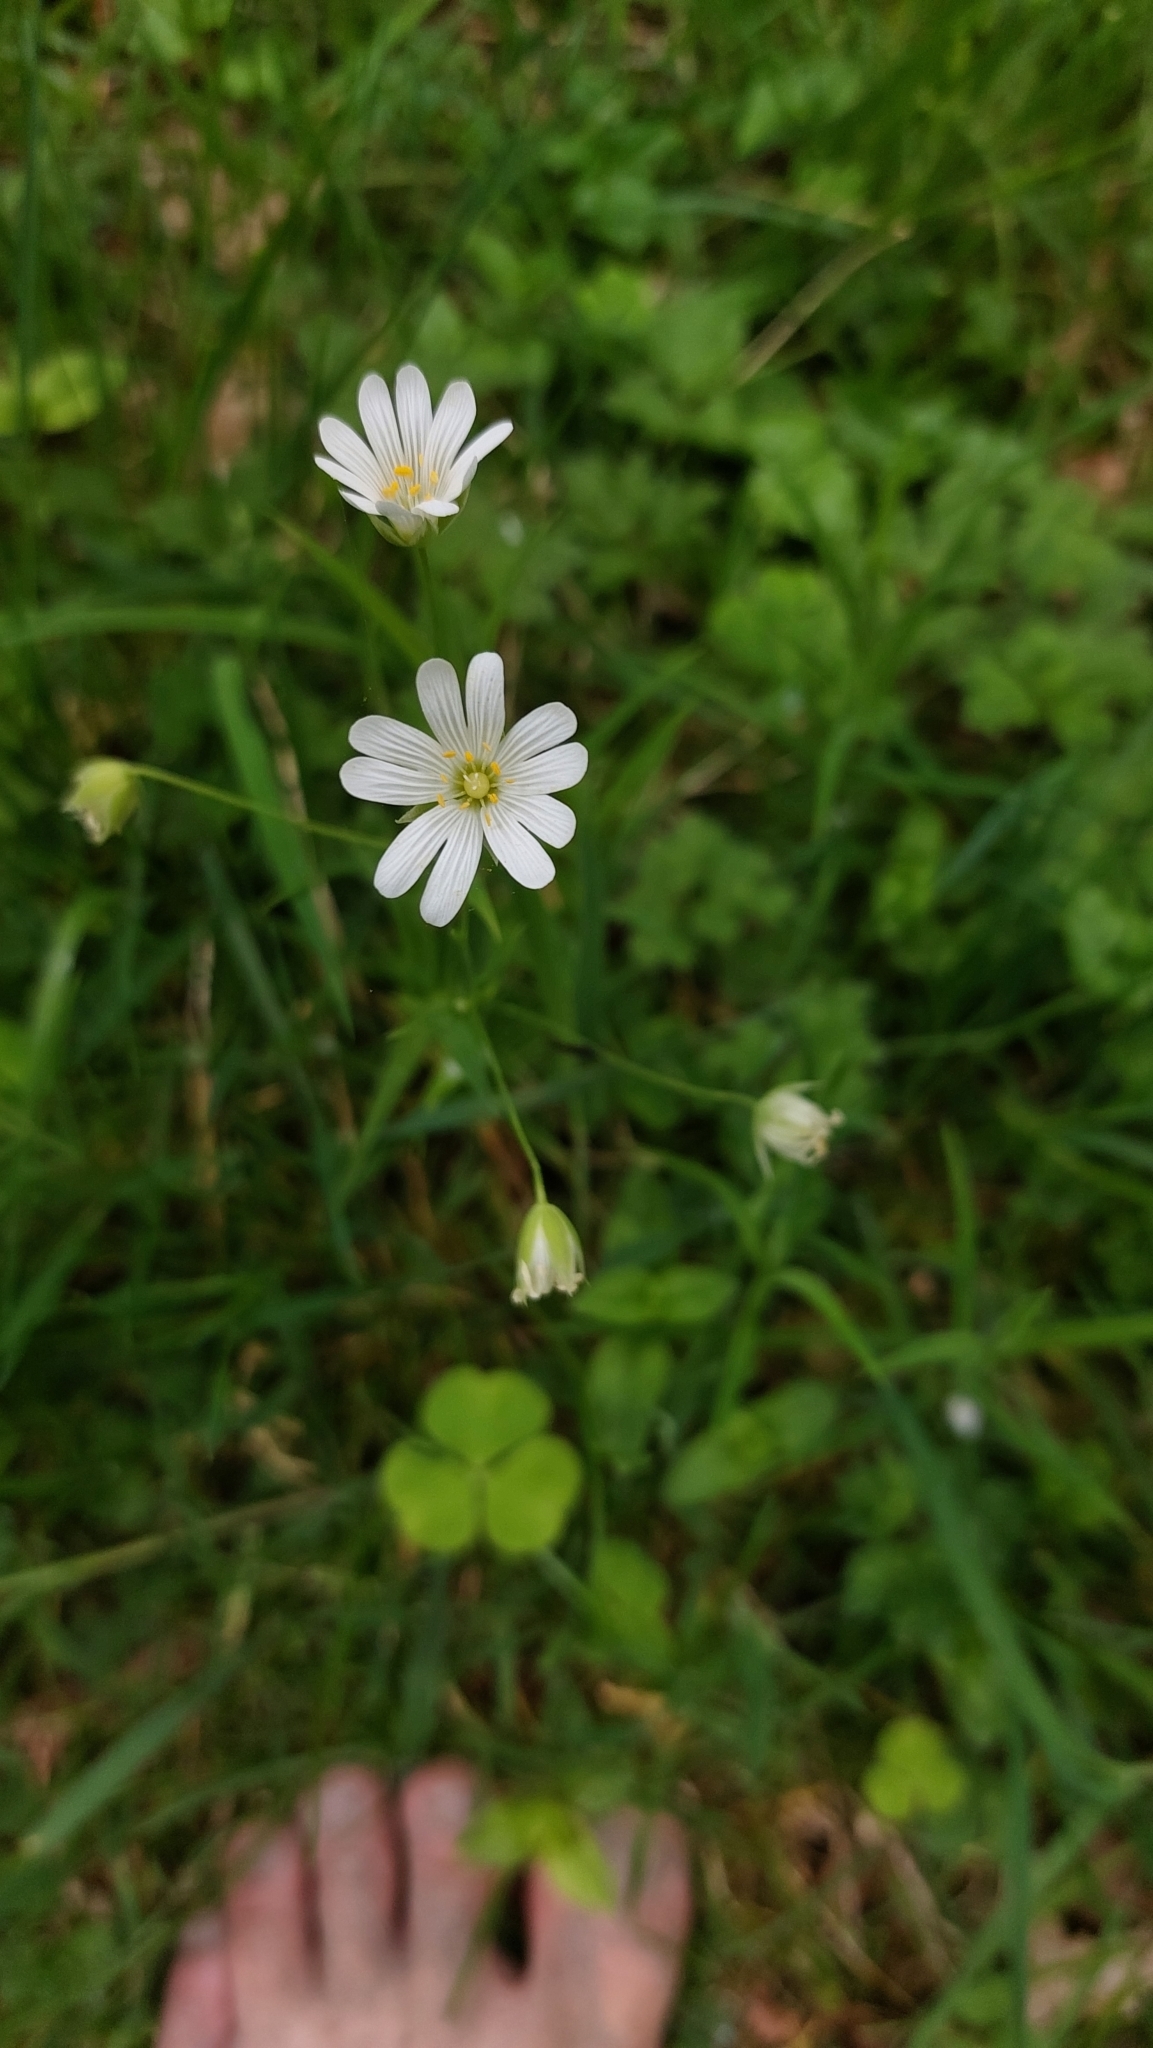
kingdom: Plantae
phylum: Tracheophyta
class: Magnoliopsida
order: Caryophyllales
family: Caryophyllaceae
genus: Rabelera
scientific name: Rabelera holostea
